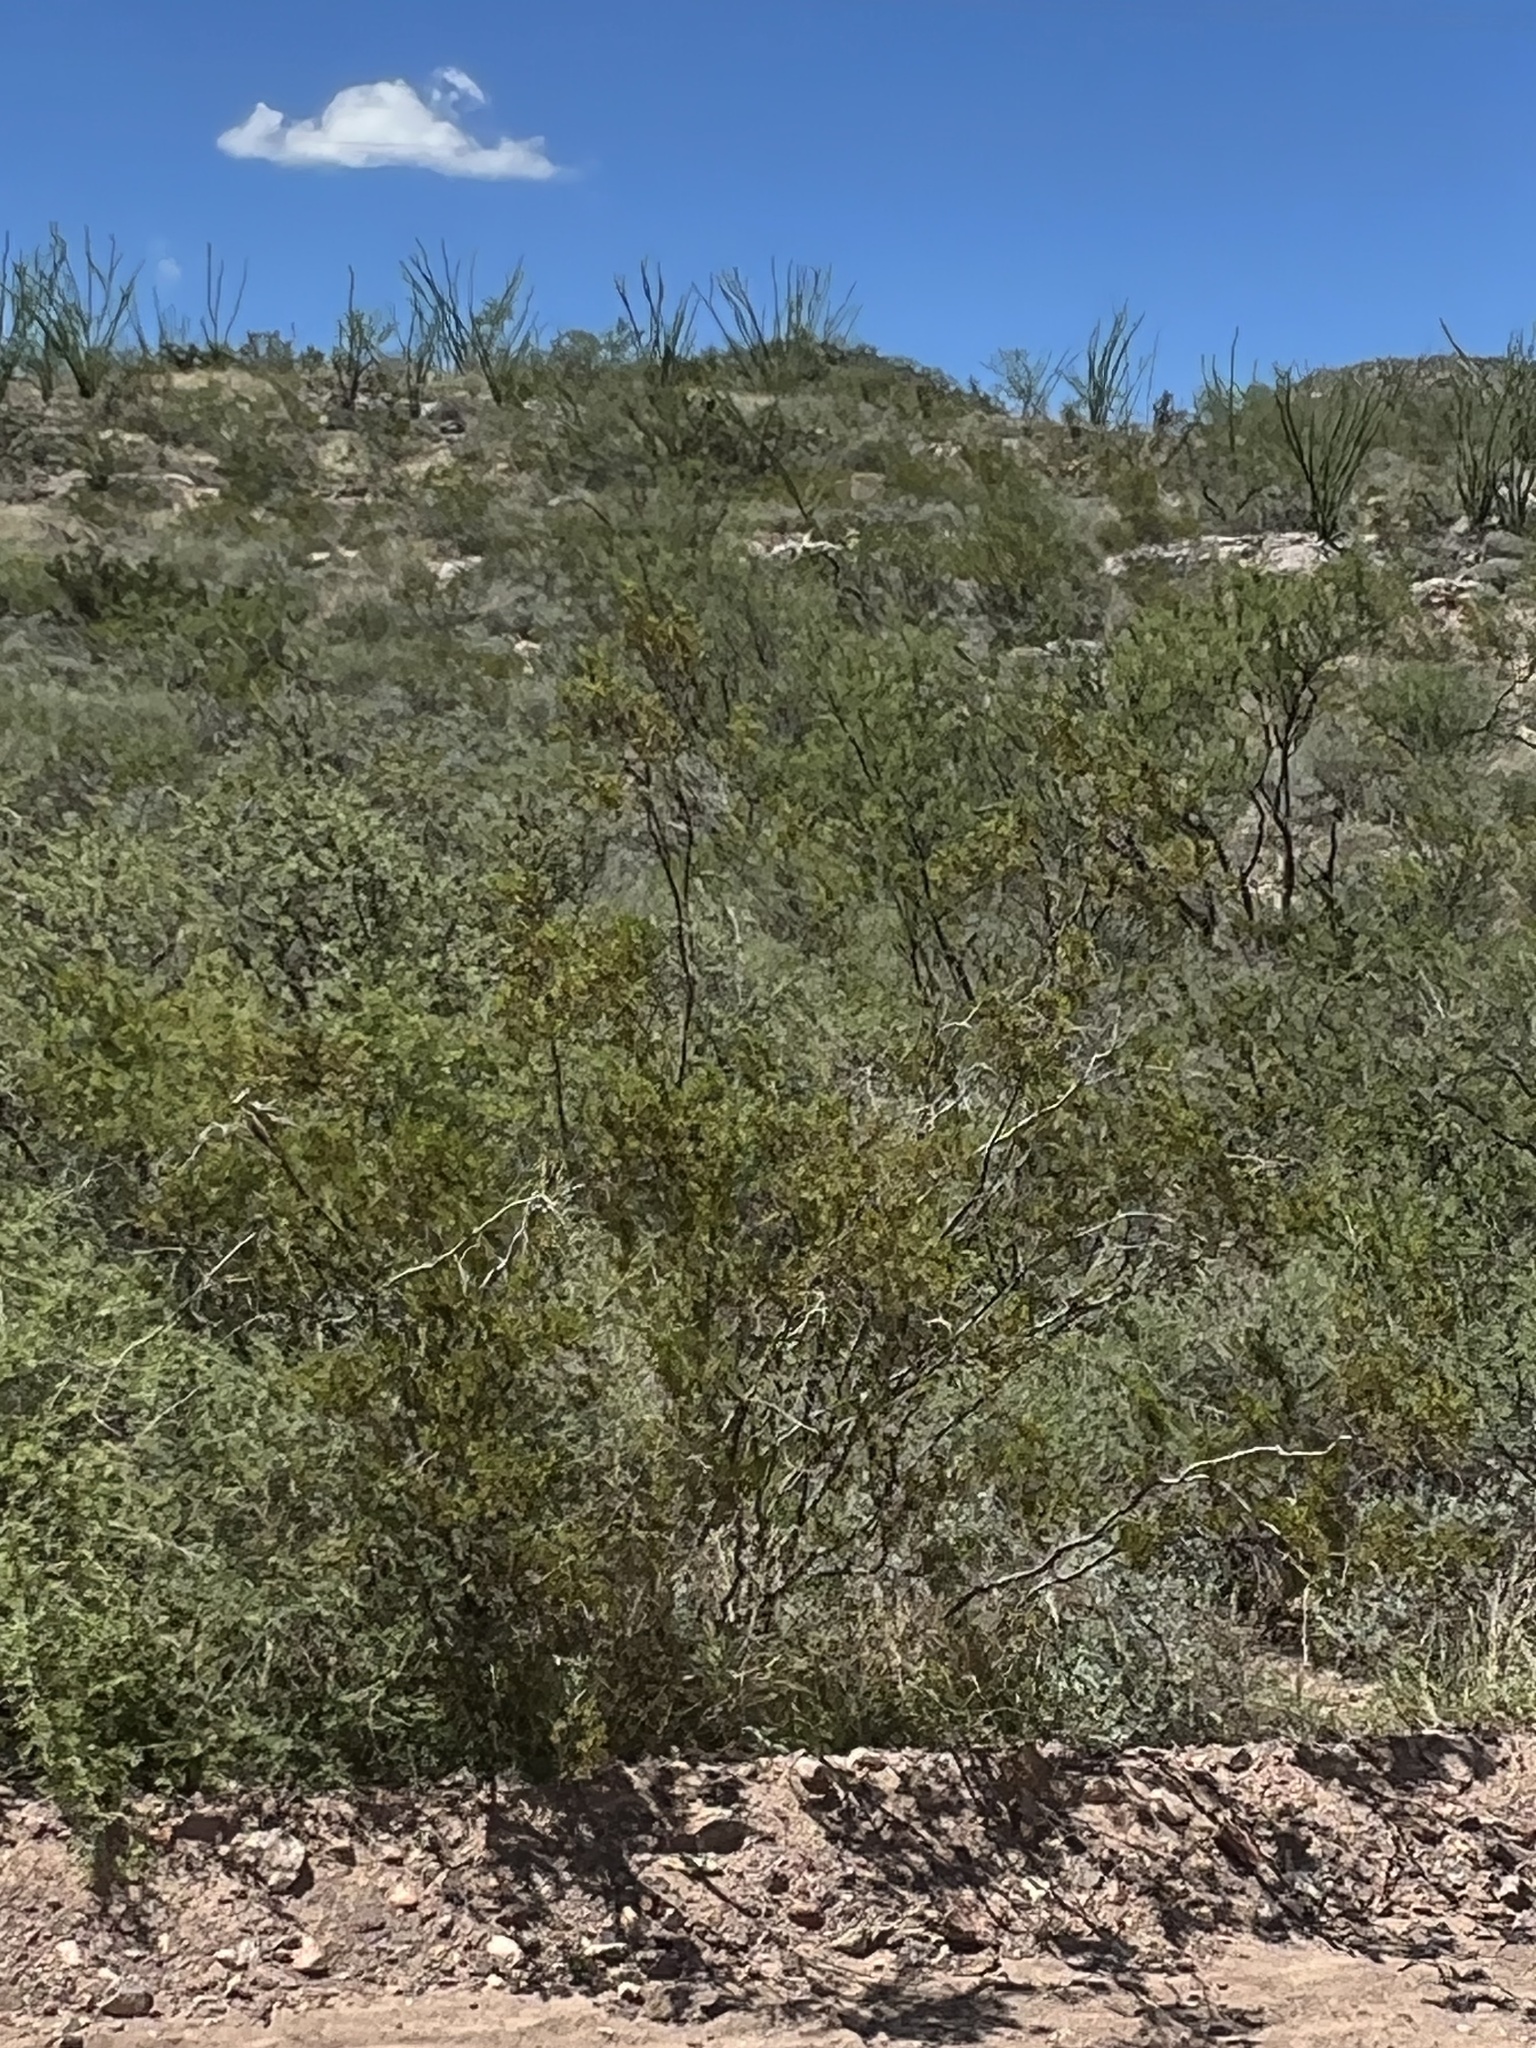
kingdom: Plantae
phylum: Tracheophyta
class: Magnoliopsida
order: Zygophyllales
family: Zygophyllaceae
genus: Larrea
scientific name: Larrea tridentata
